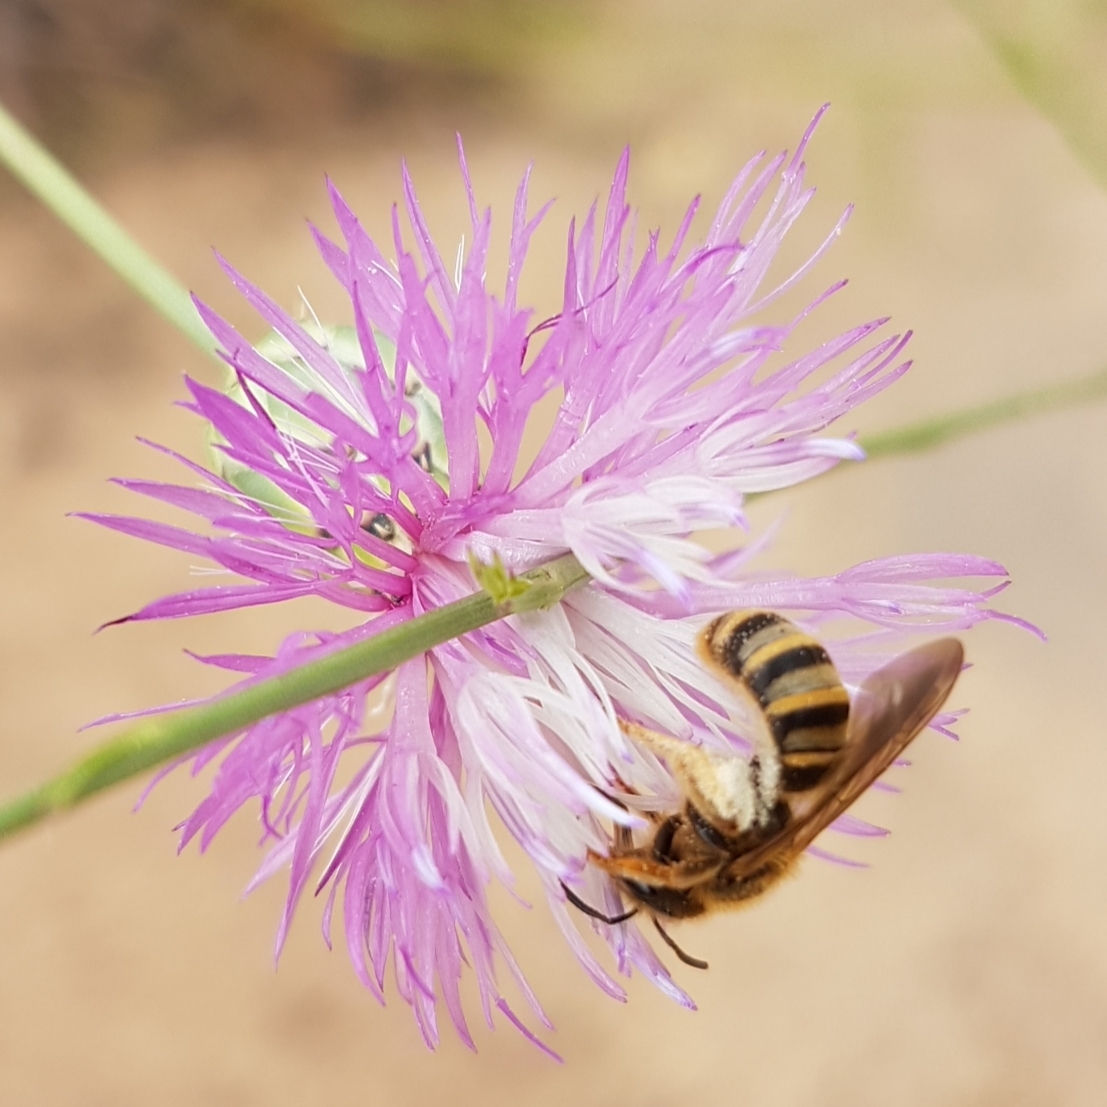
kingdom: Animalia
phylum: Arthropoda
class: Insecta
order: Hymenoptera
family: Halictidae
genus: Halictus
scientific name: Halictus scabiosae
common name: Great banded furrow bee
